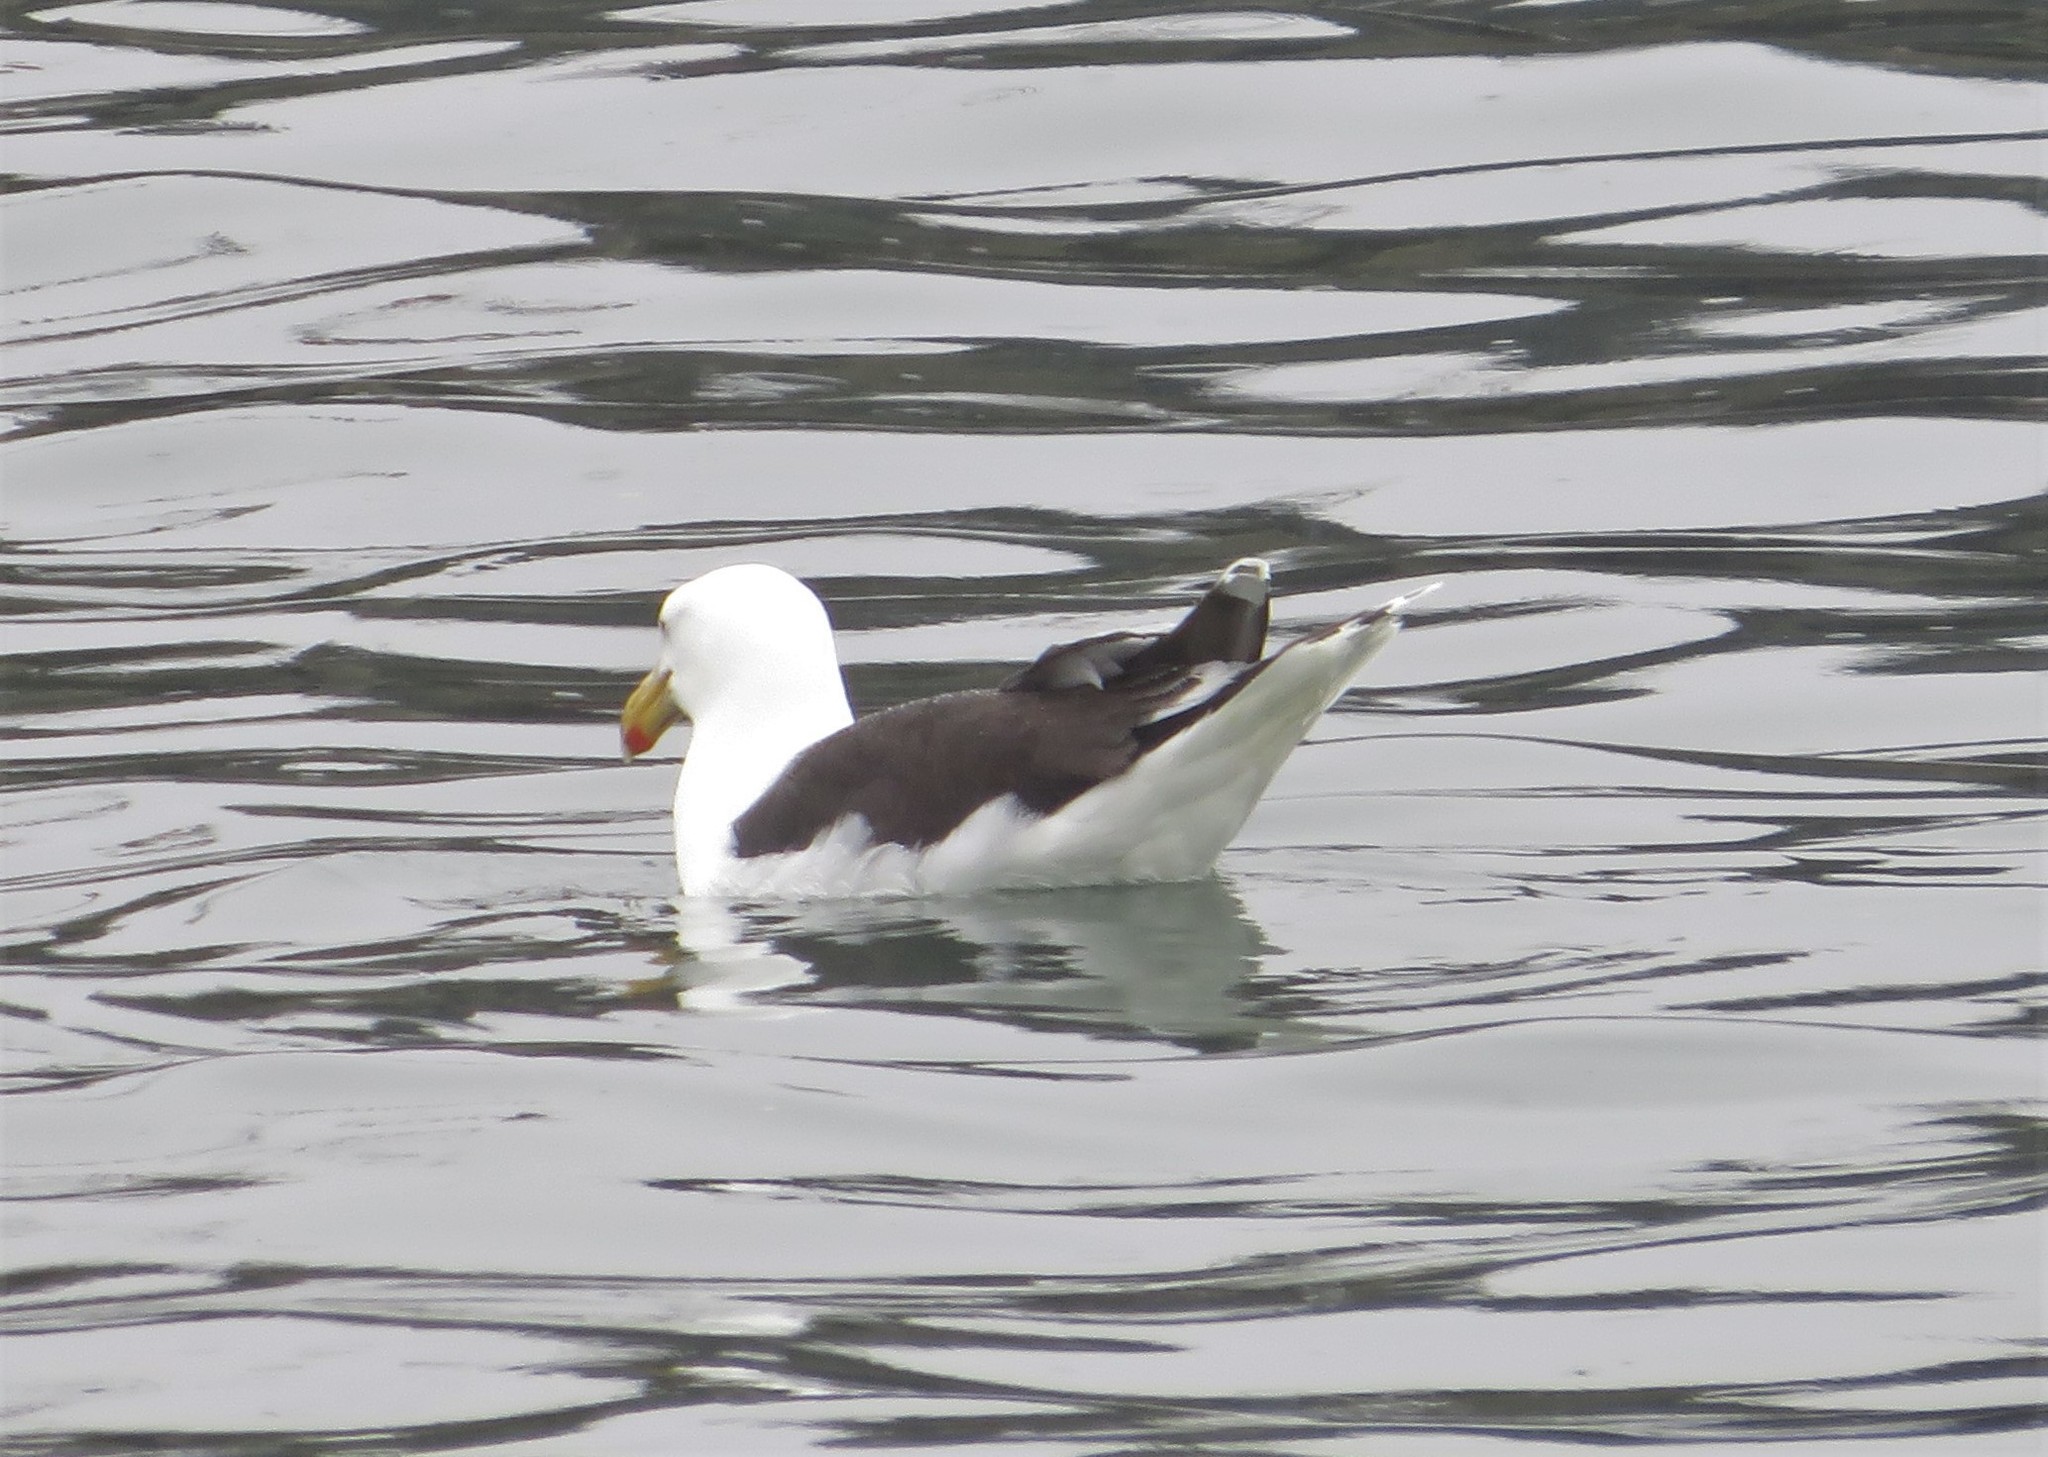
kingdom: Animalia
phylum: Chordata
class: Aves
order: Charadriiformes
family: Laridae
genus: Larus
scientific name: Larus marinus
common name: Great black-backed gull
